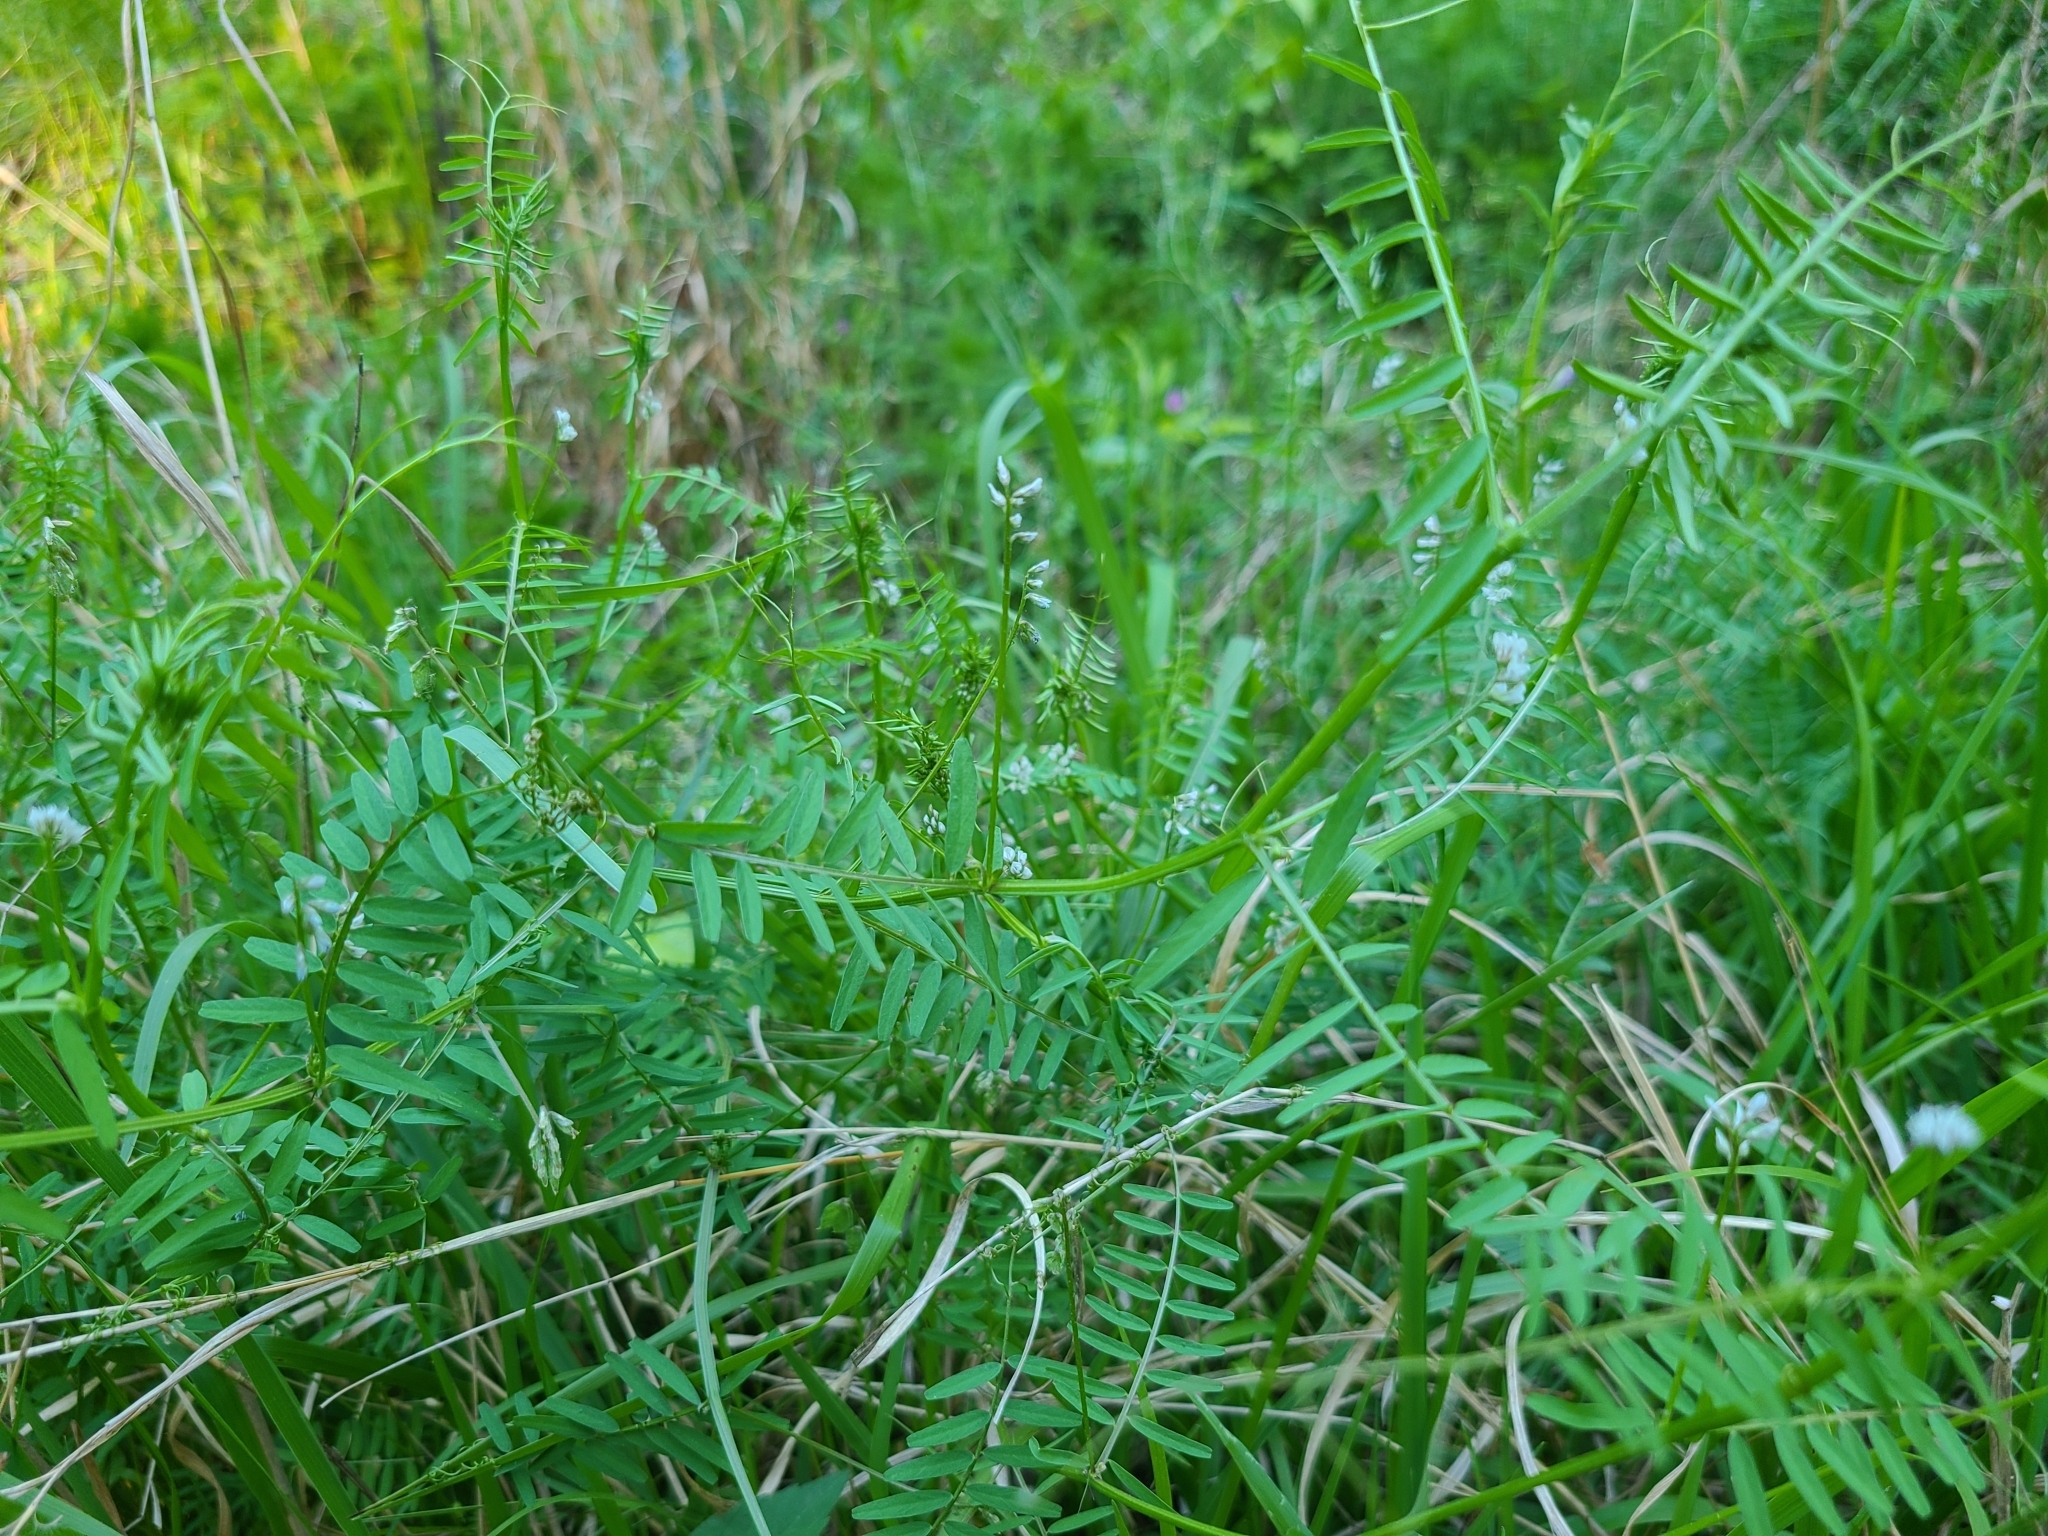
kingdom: Plantae
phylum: Tracheophyta
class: Magnoliopsida
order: Fabales
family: Fabaceae
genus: Vicia
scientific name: Vicia hirsuta
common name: Tiny vetch
